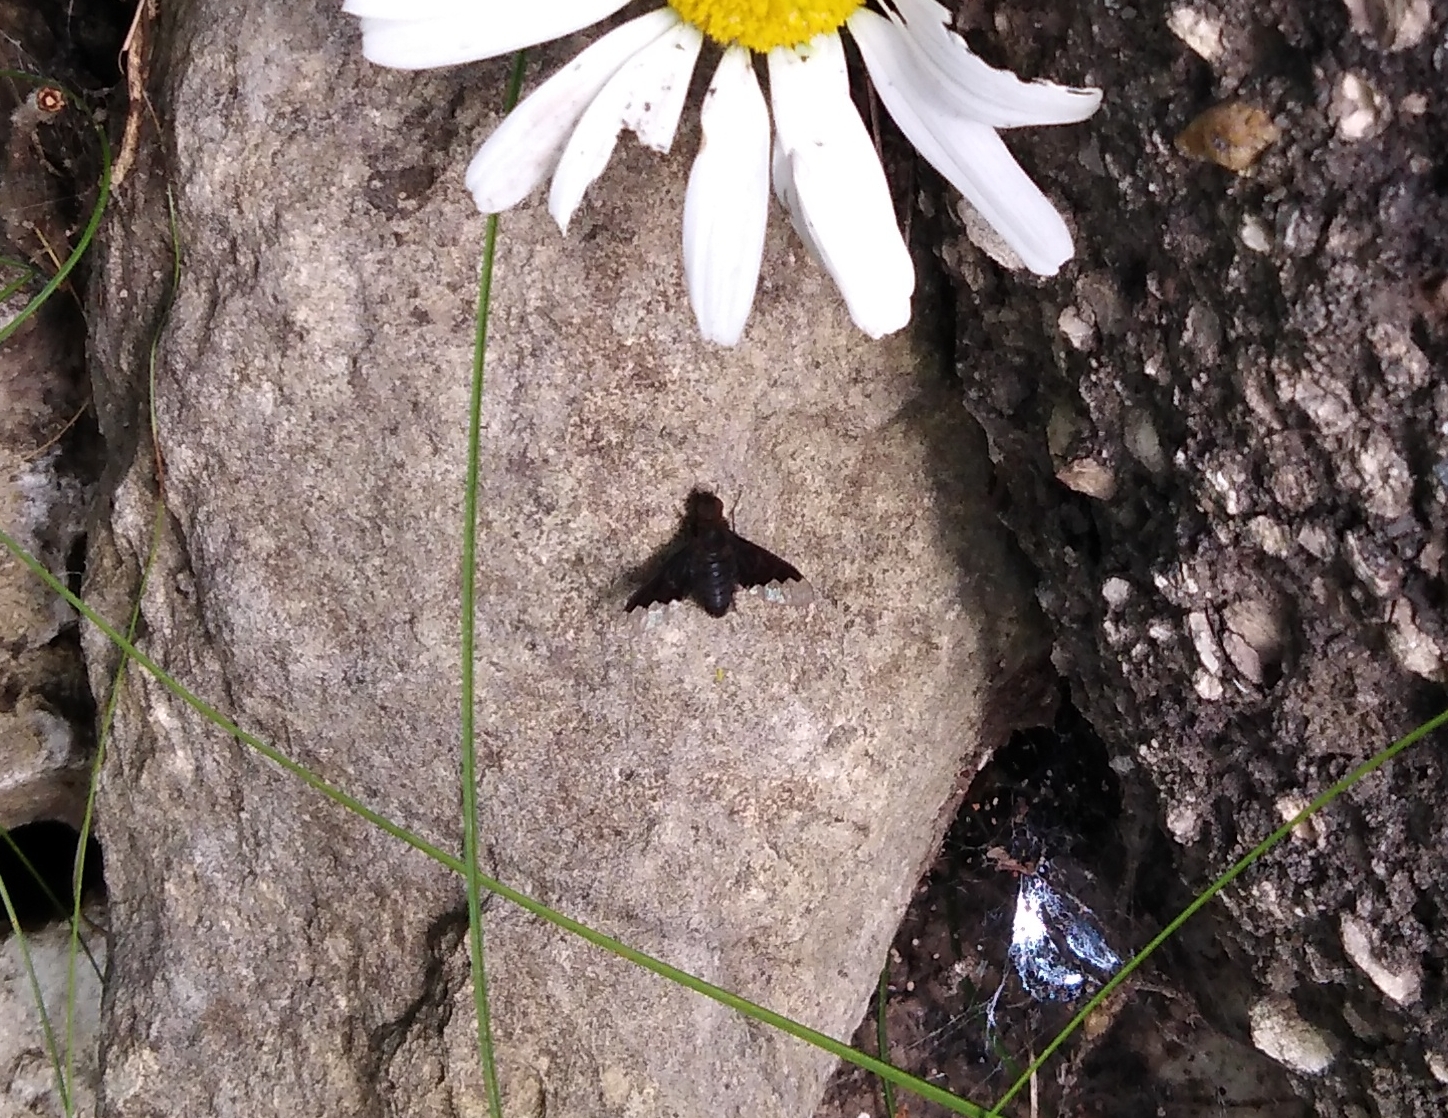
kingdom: Animalia
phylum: Arthropoda
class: Insecta
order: Diptera
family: Bombyliidae
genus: Hemipenthes
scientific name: Hemipenthes morio
